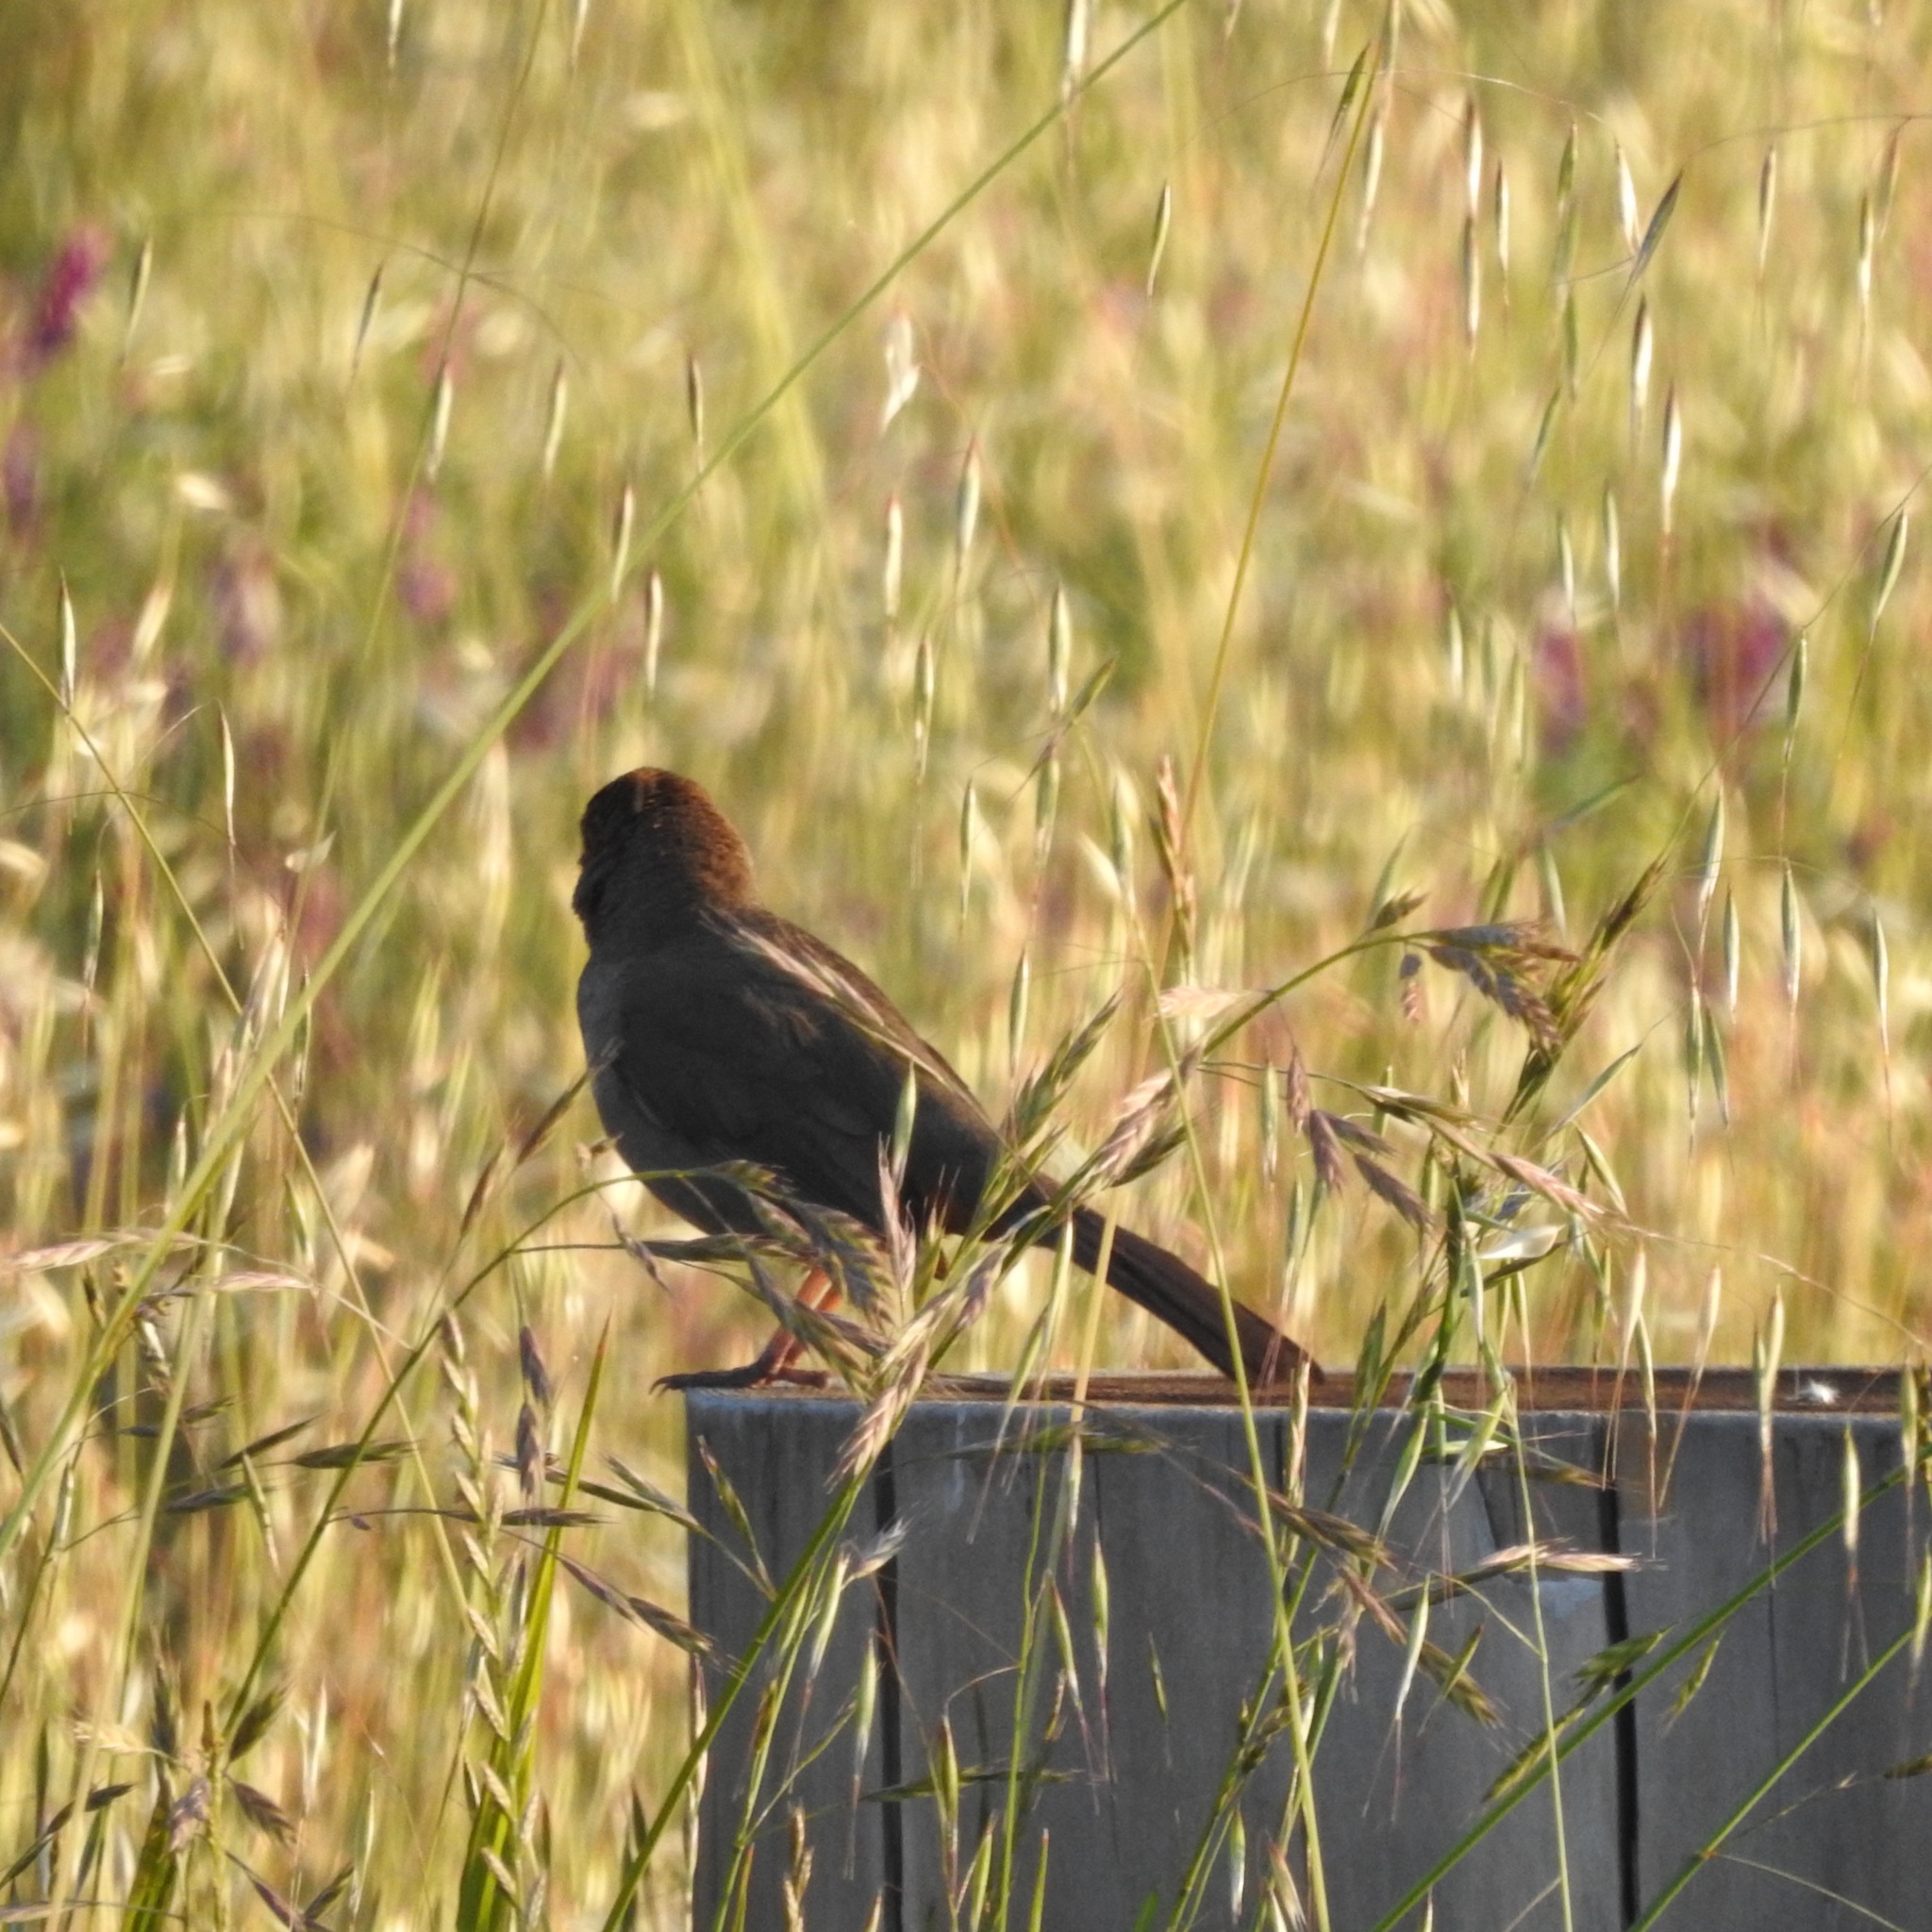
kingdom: Animalia
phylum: Chordata
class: Aves
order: Passeriformes
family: Passerellidae
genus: Melozone
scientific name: Melozone crissalis
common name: California towhee
